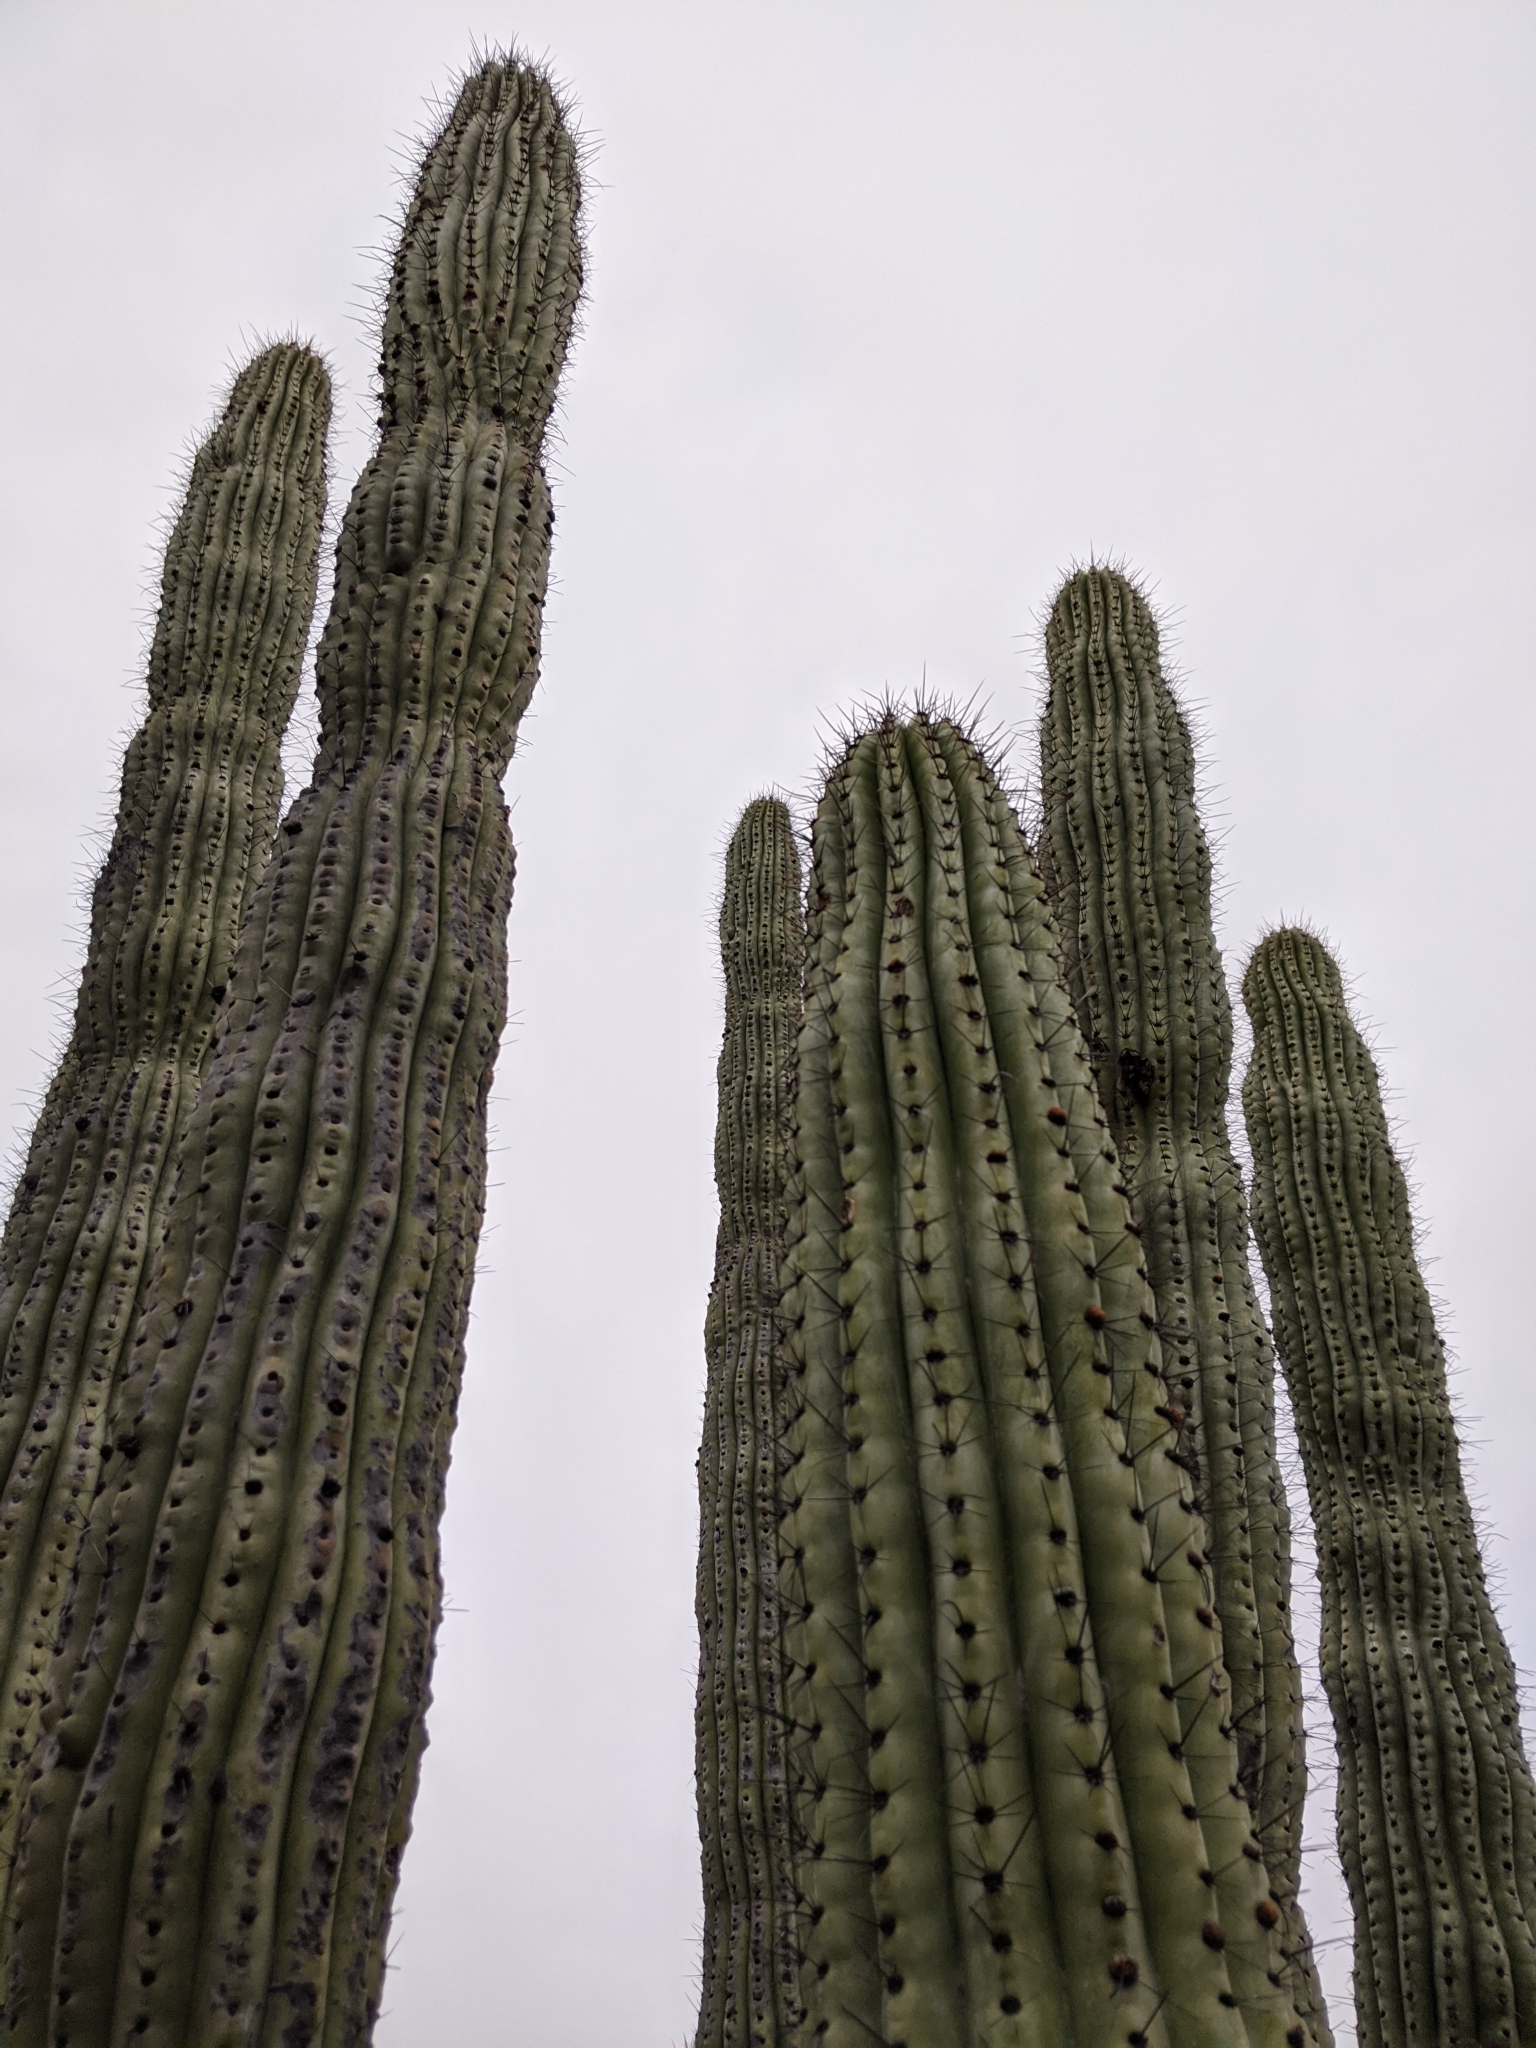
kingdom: Plantae
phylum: Tracheophyta
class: Magnoliopsida
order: Caryophyllales
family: Cactaceae
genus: Stenocereus
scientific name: Stenocereus thurberi
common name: Organ pipe cactus
